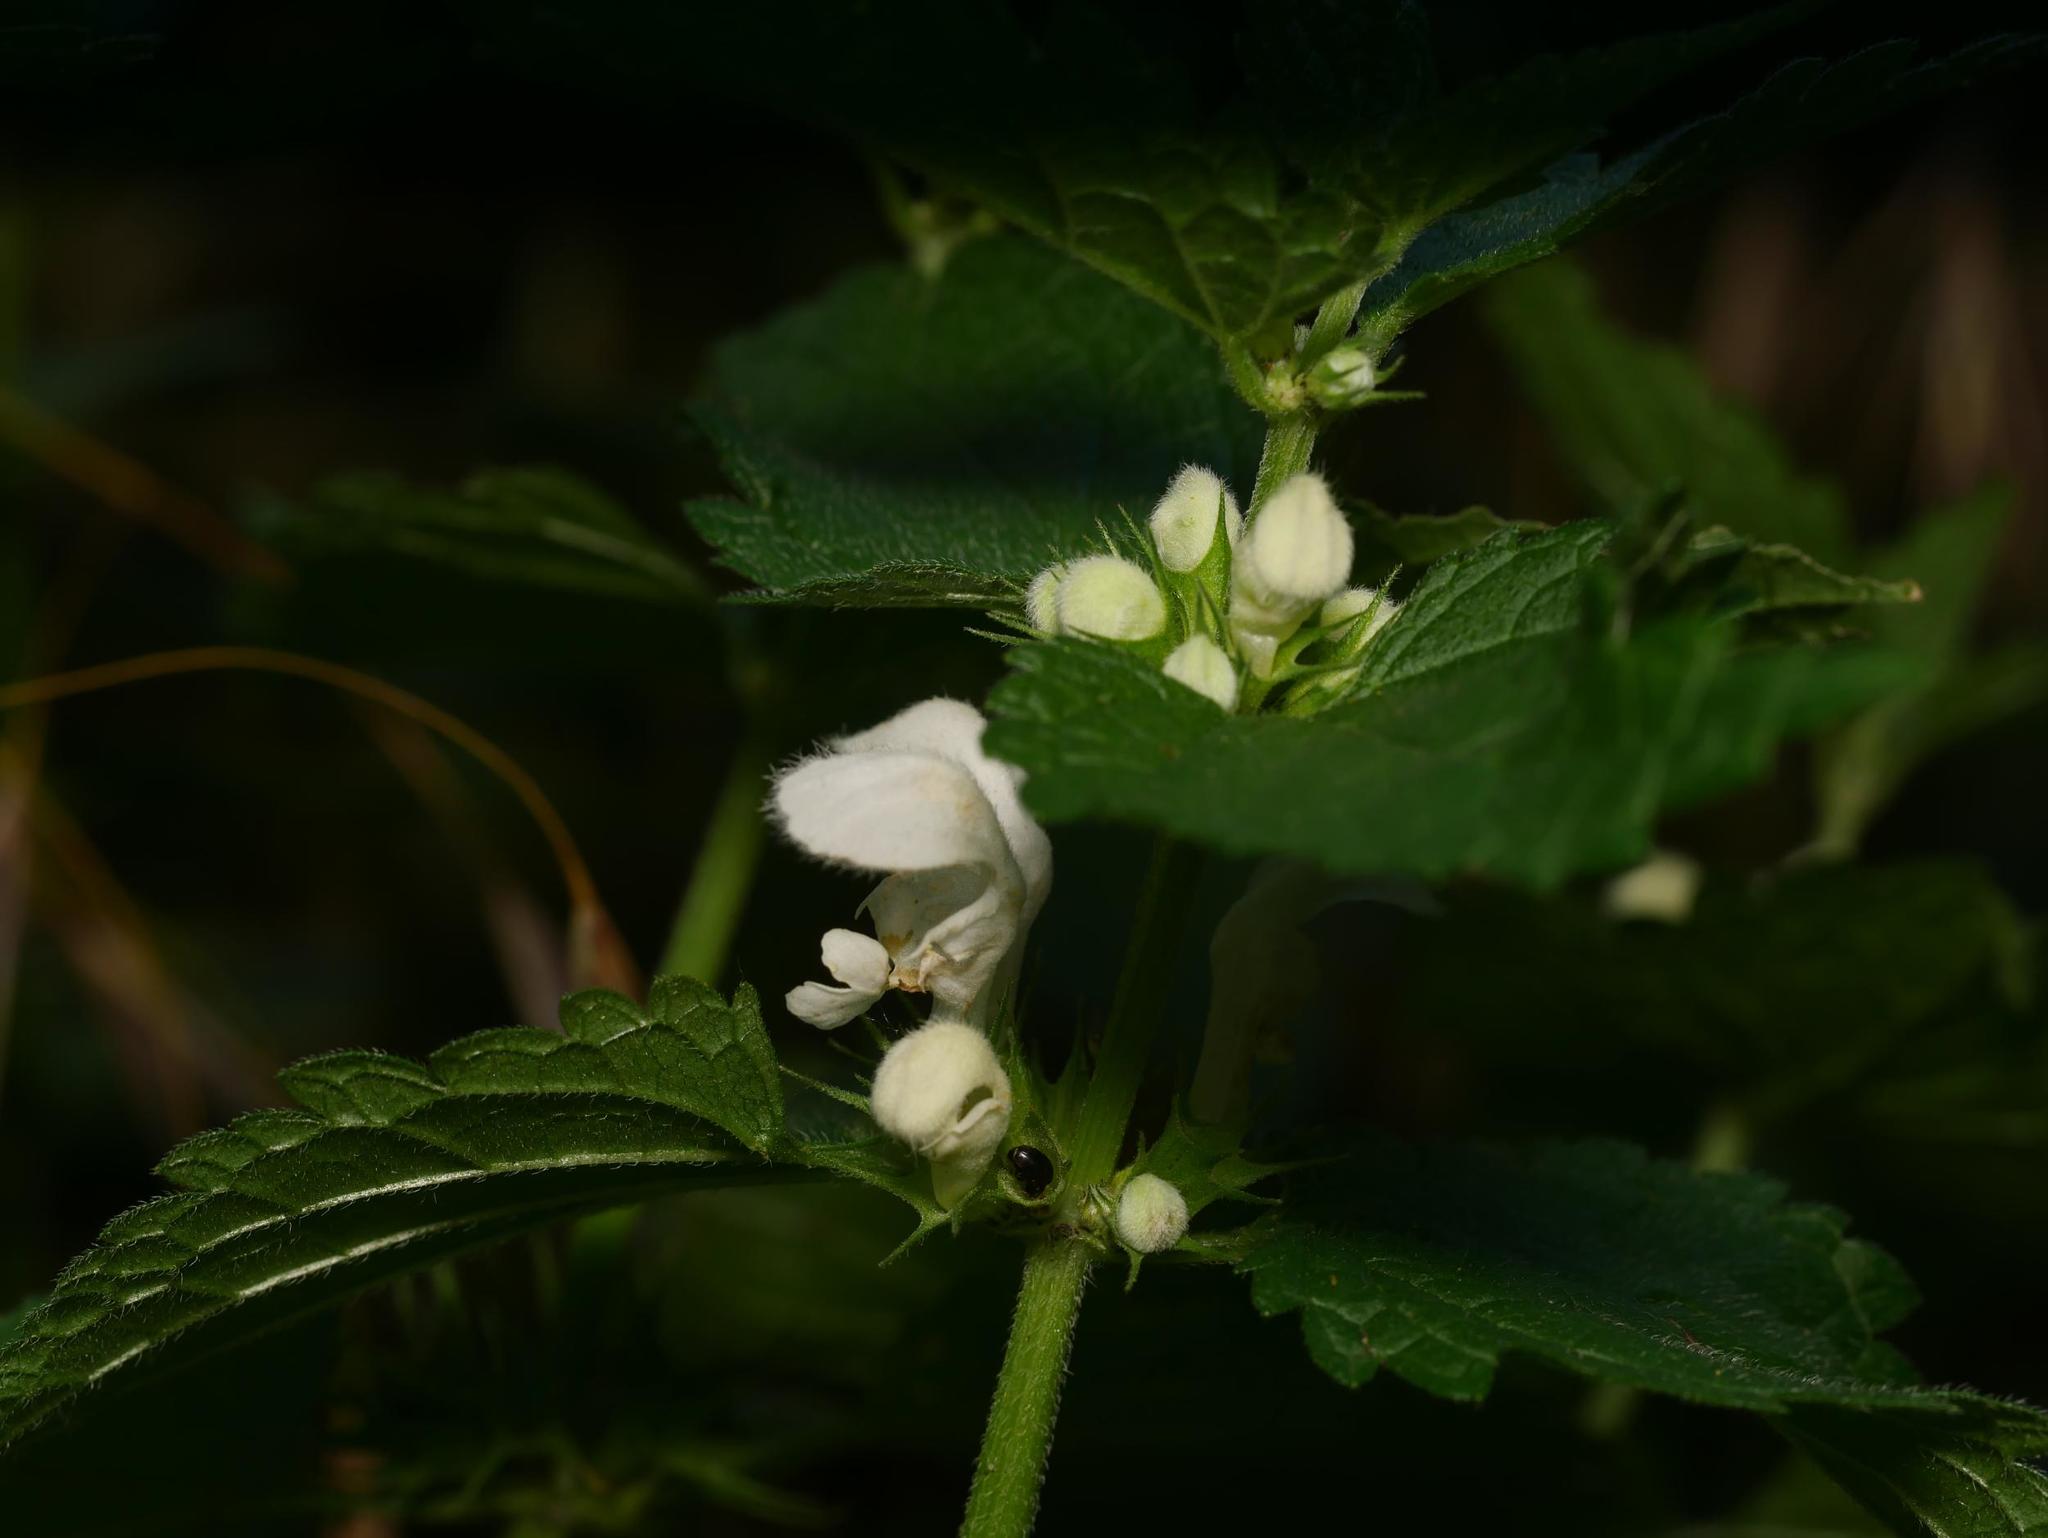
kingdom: Plantae
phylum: Tracheophyta
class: Magnoliopsida
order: Lamiales
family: Lamiaceae
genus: Lamium
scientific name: Lamium album
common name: White dead-nettle
